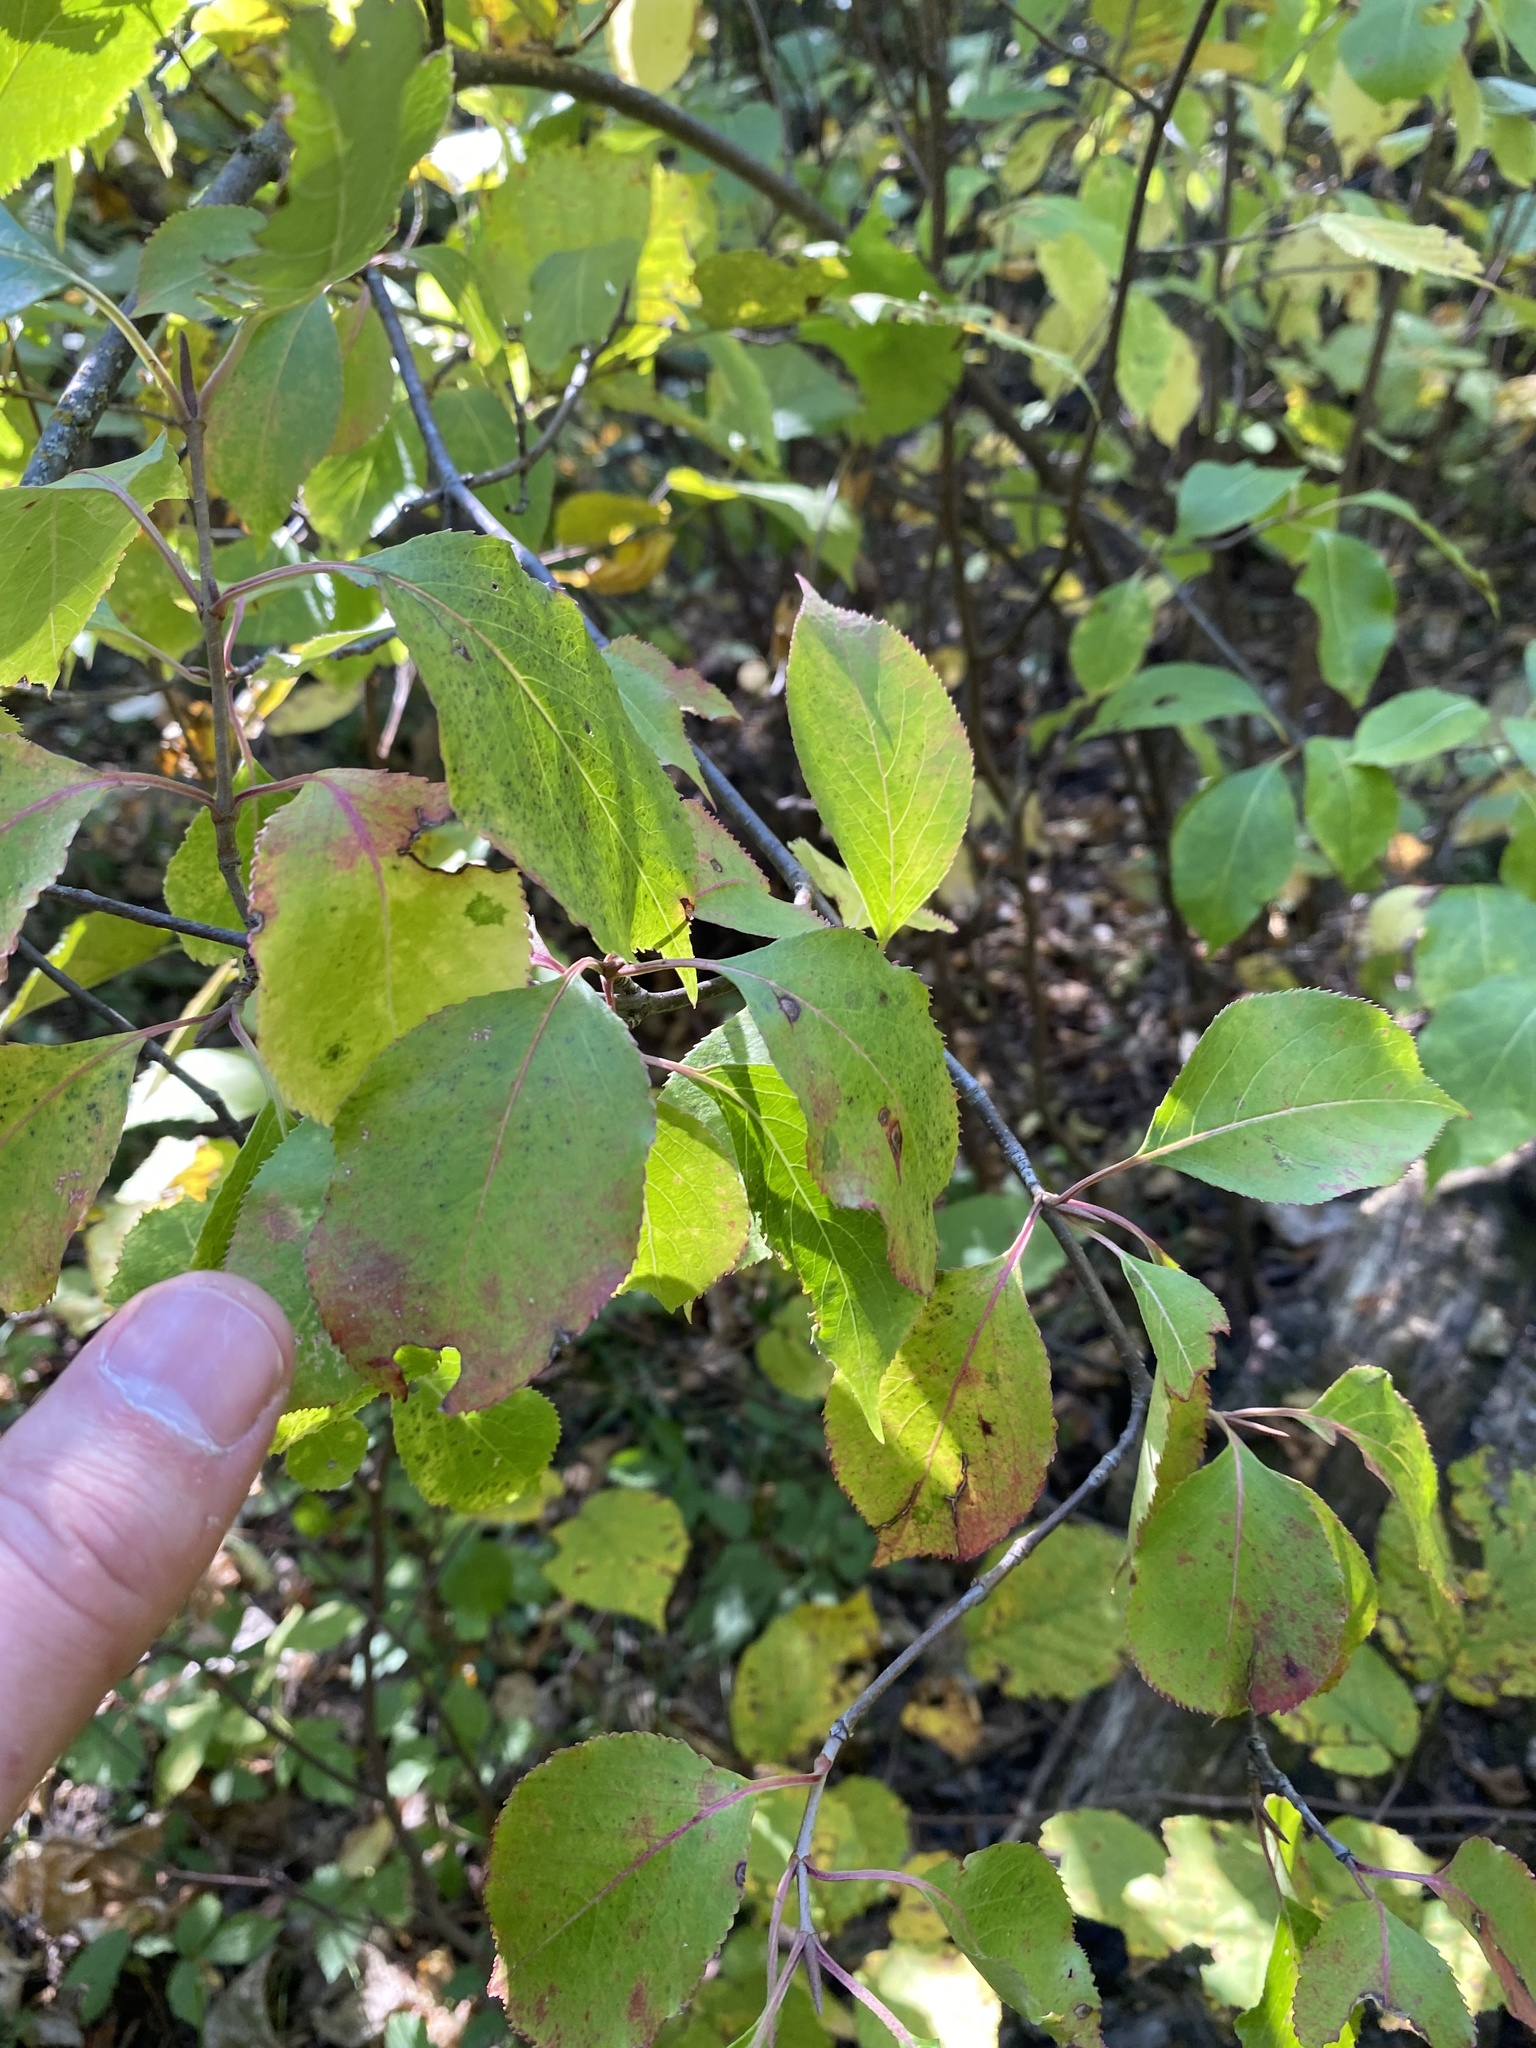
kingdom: Plantae
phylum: Tracheophyta
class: Magnoliopsida
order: Dipsacales
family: Viburnaceae
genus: Viburnum
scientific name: Viburnum lentago
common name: Black haw
